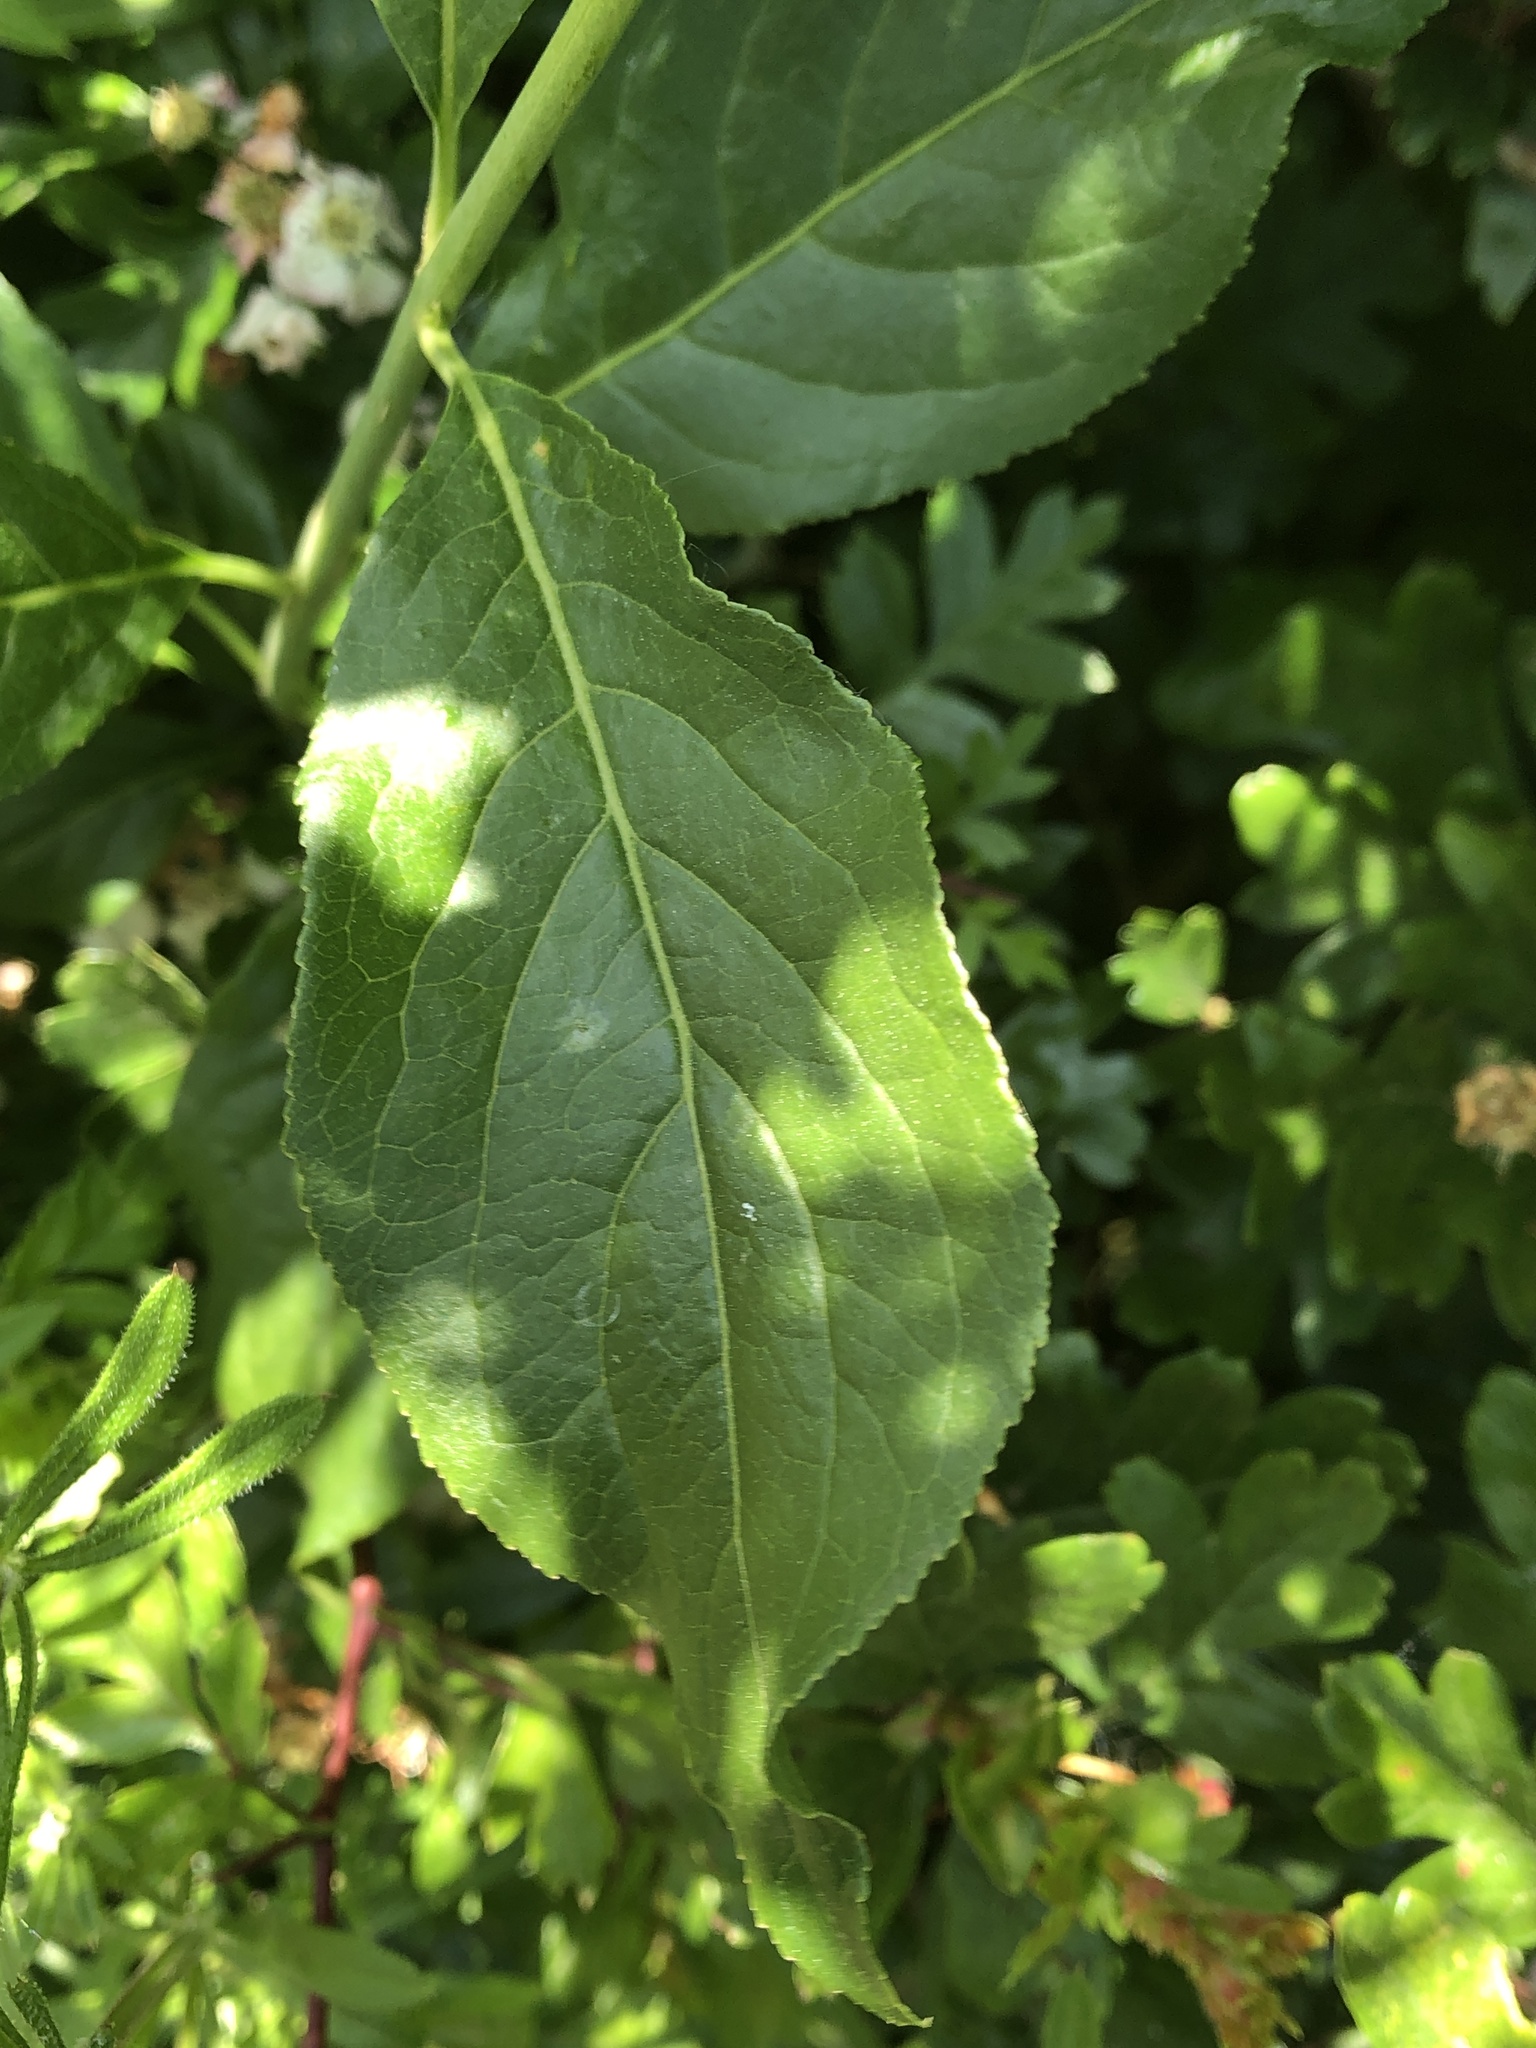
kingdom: Plantae
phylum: Tracheophyta
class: Magnoliopsida
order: Celastrales
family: Celastraceae
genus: Euonymus
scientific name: Euonymus europaeus
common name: Spindle
